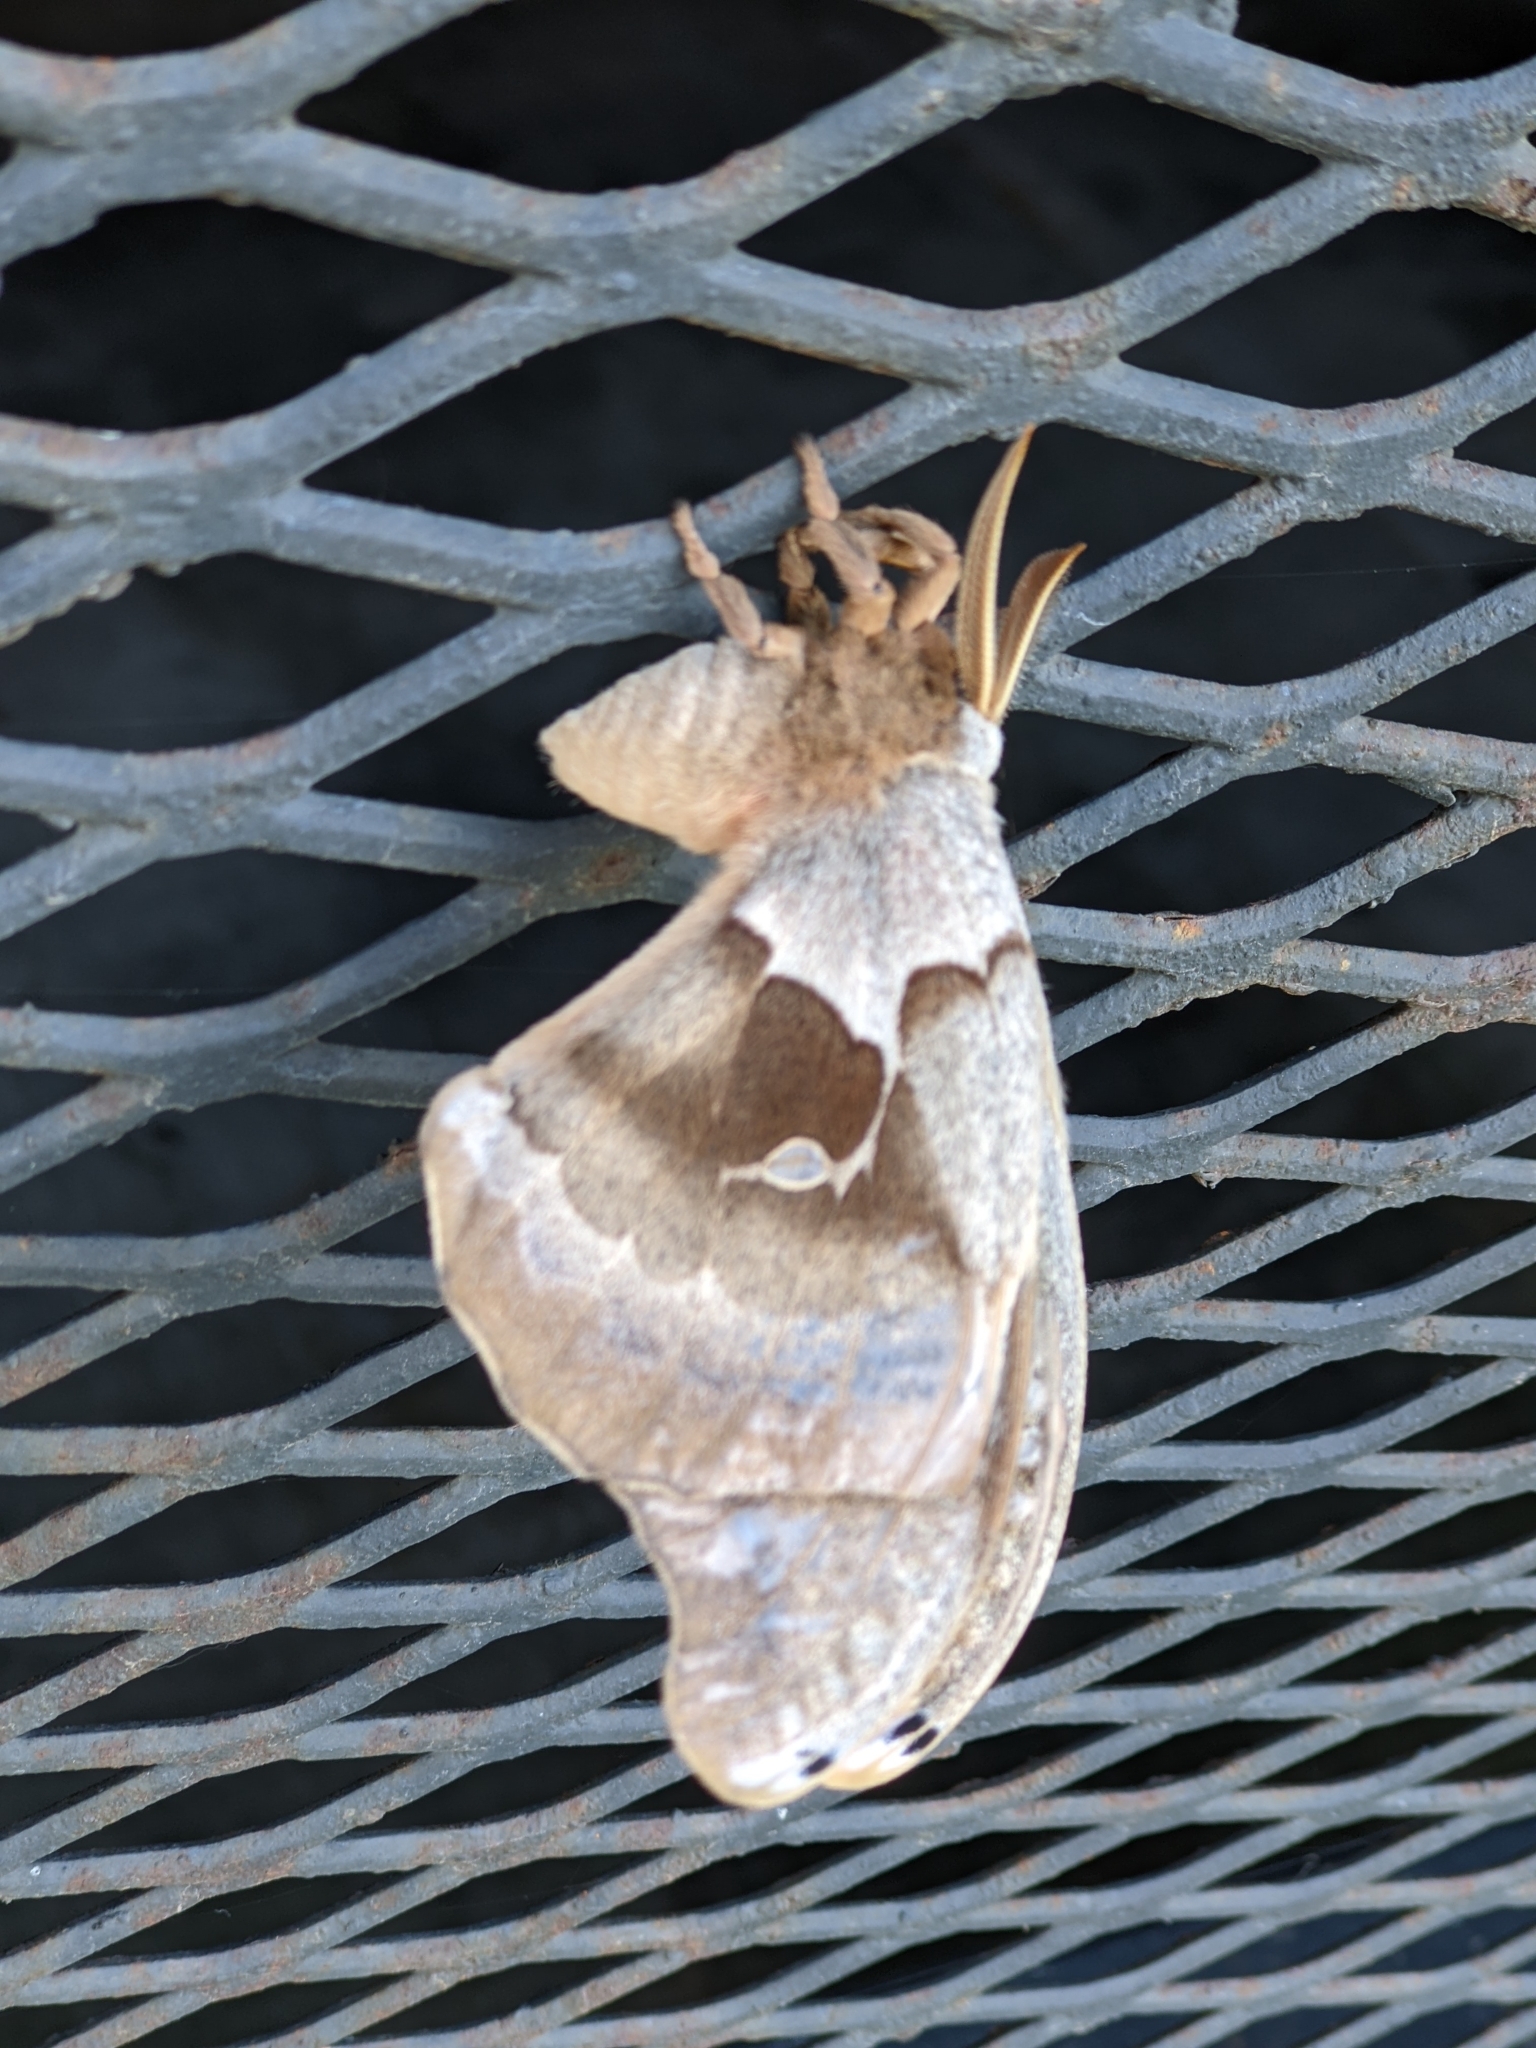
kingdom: Animalia
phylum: Arthropoda
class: Insecta
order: Lepidoptera
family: Saturniidae
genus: Antheraea
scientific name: Antheraea polyphemus
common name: Polyphemus moth
